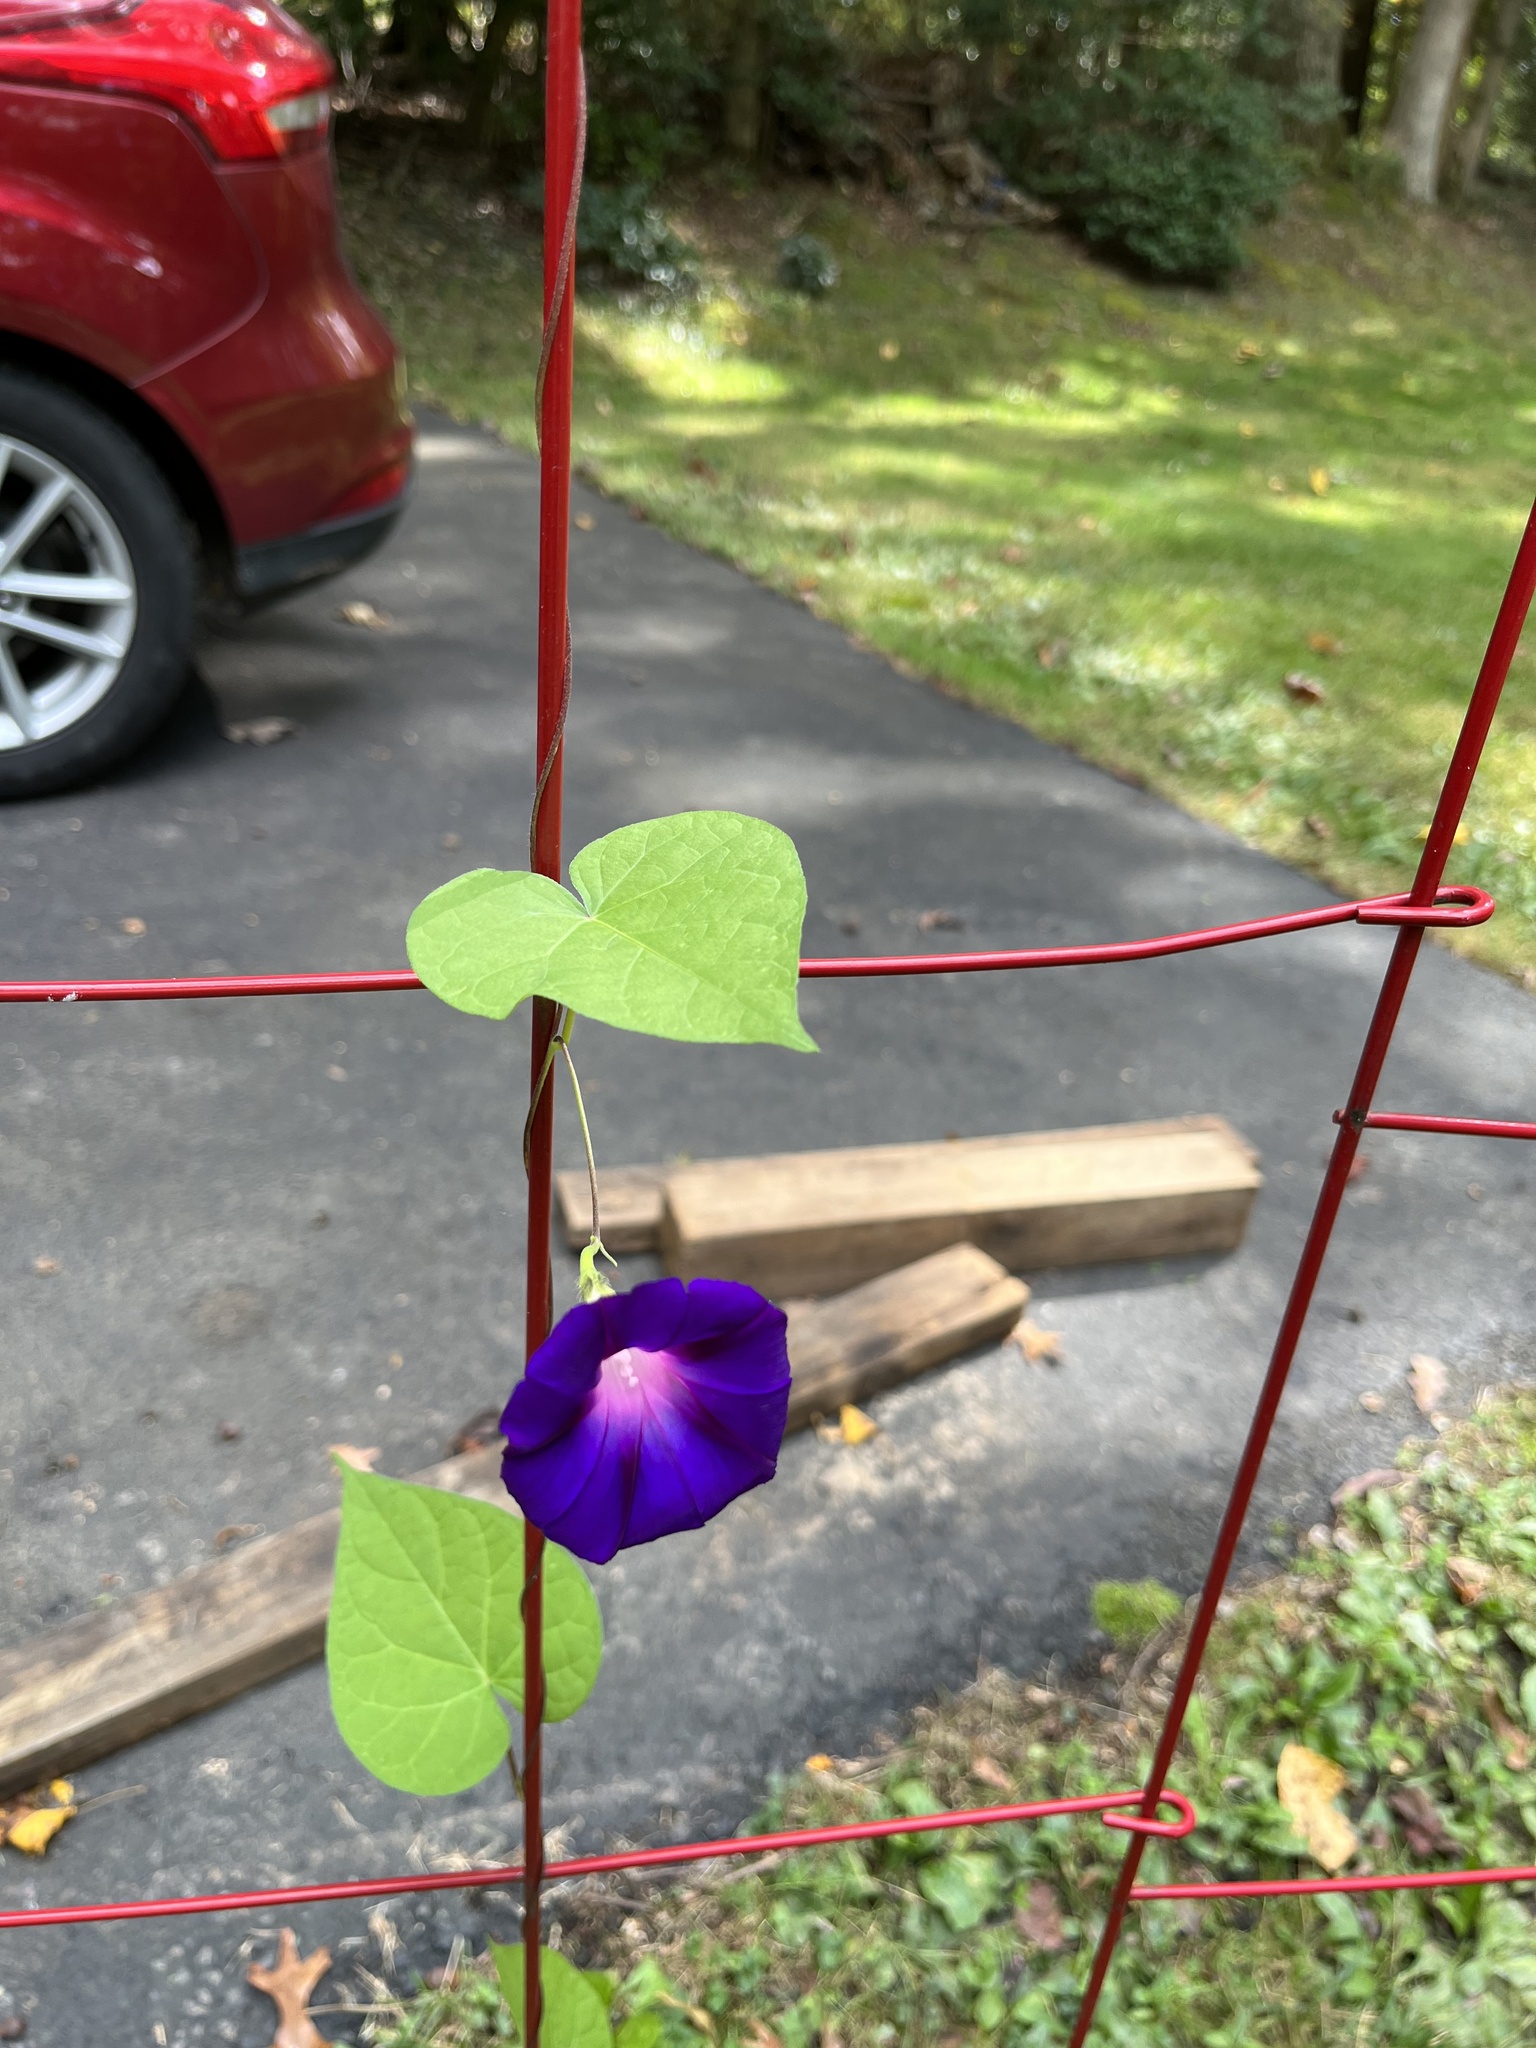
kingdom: Plantae
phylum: Tracheophyta
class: Magnoliopsida
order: Solanales
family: Convolvulaceae
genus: Ipomoea
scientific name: Ipomoea purpurea
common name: Common morning-glory
